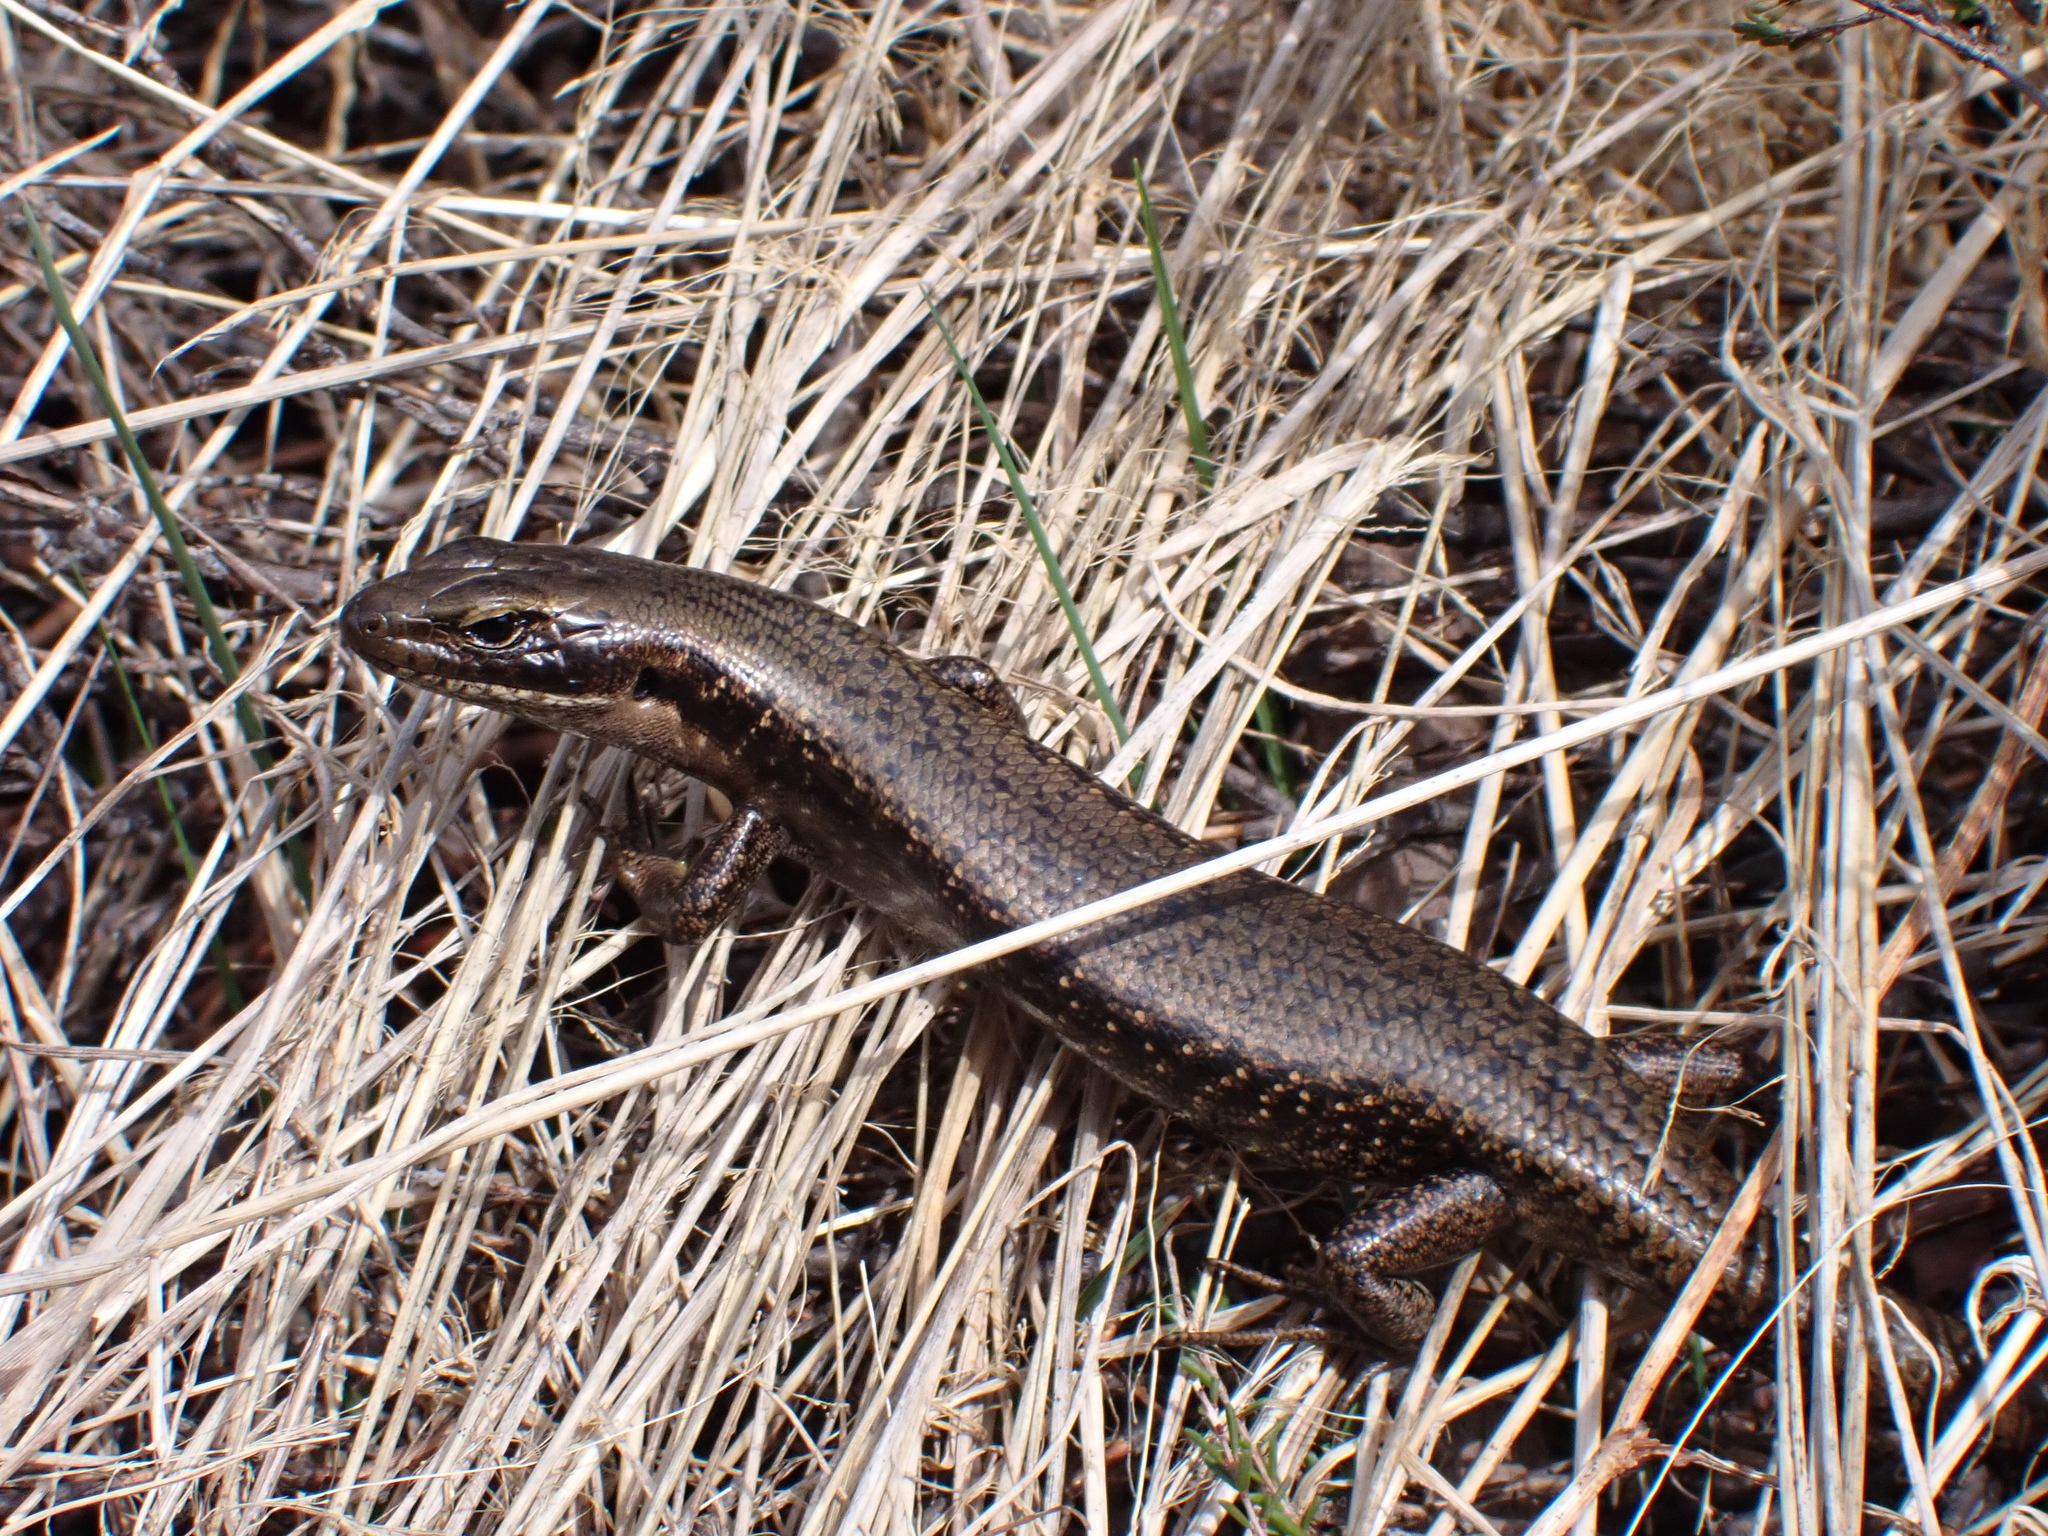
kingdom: Animalia
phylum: Chordata
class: Squamata
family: Scincidae
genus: Eulamprus
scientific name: Eulamprus tympanum
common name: Cool-temperate water-skink
